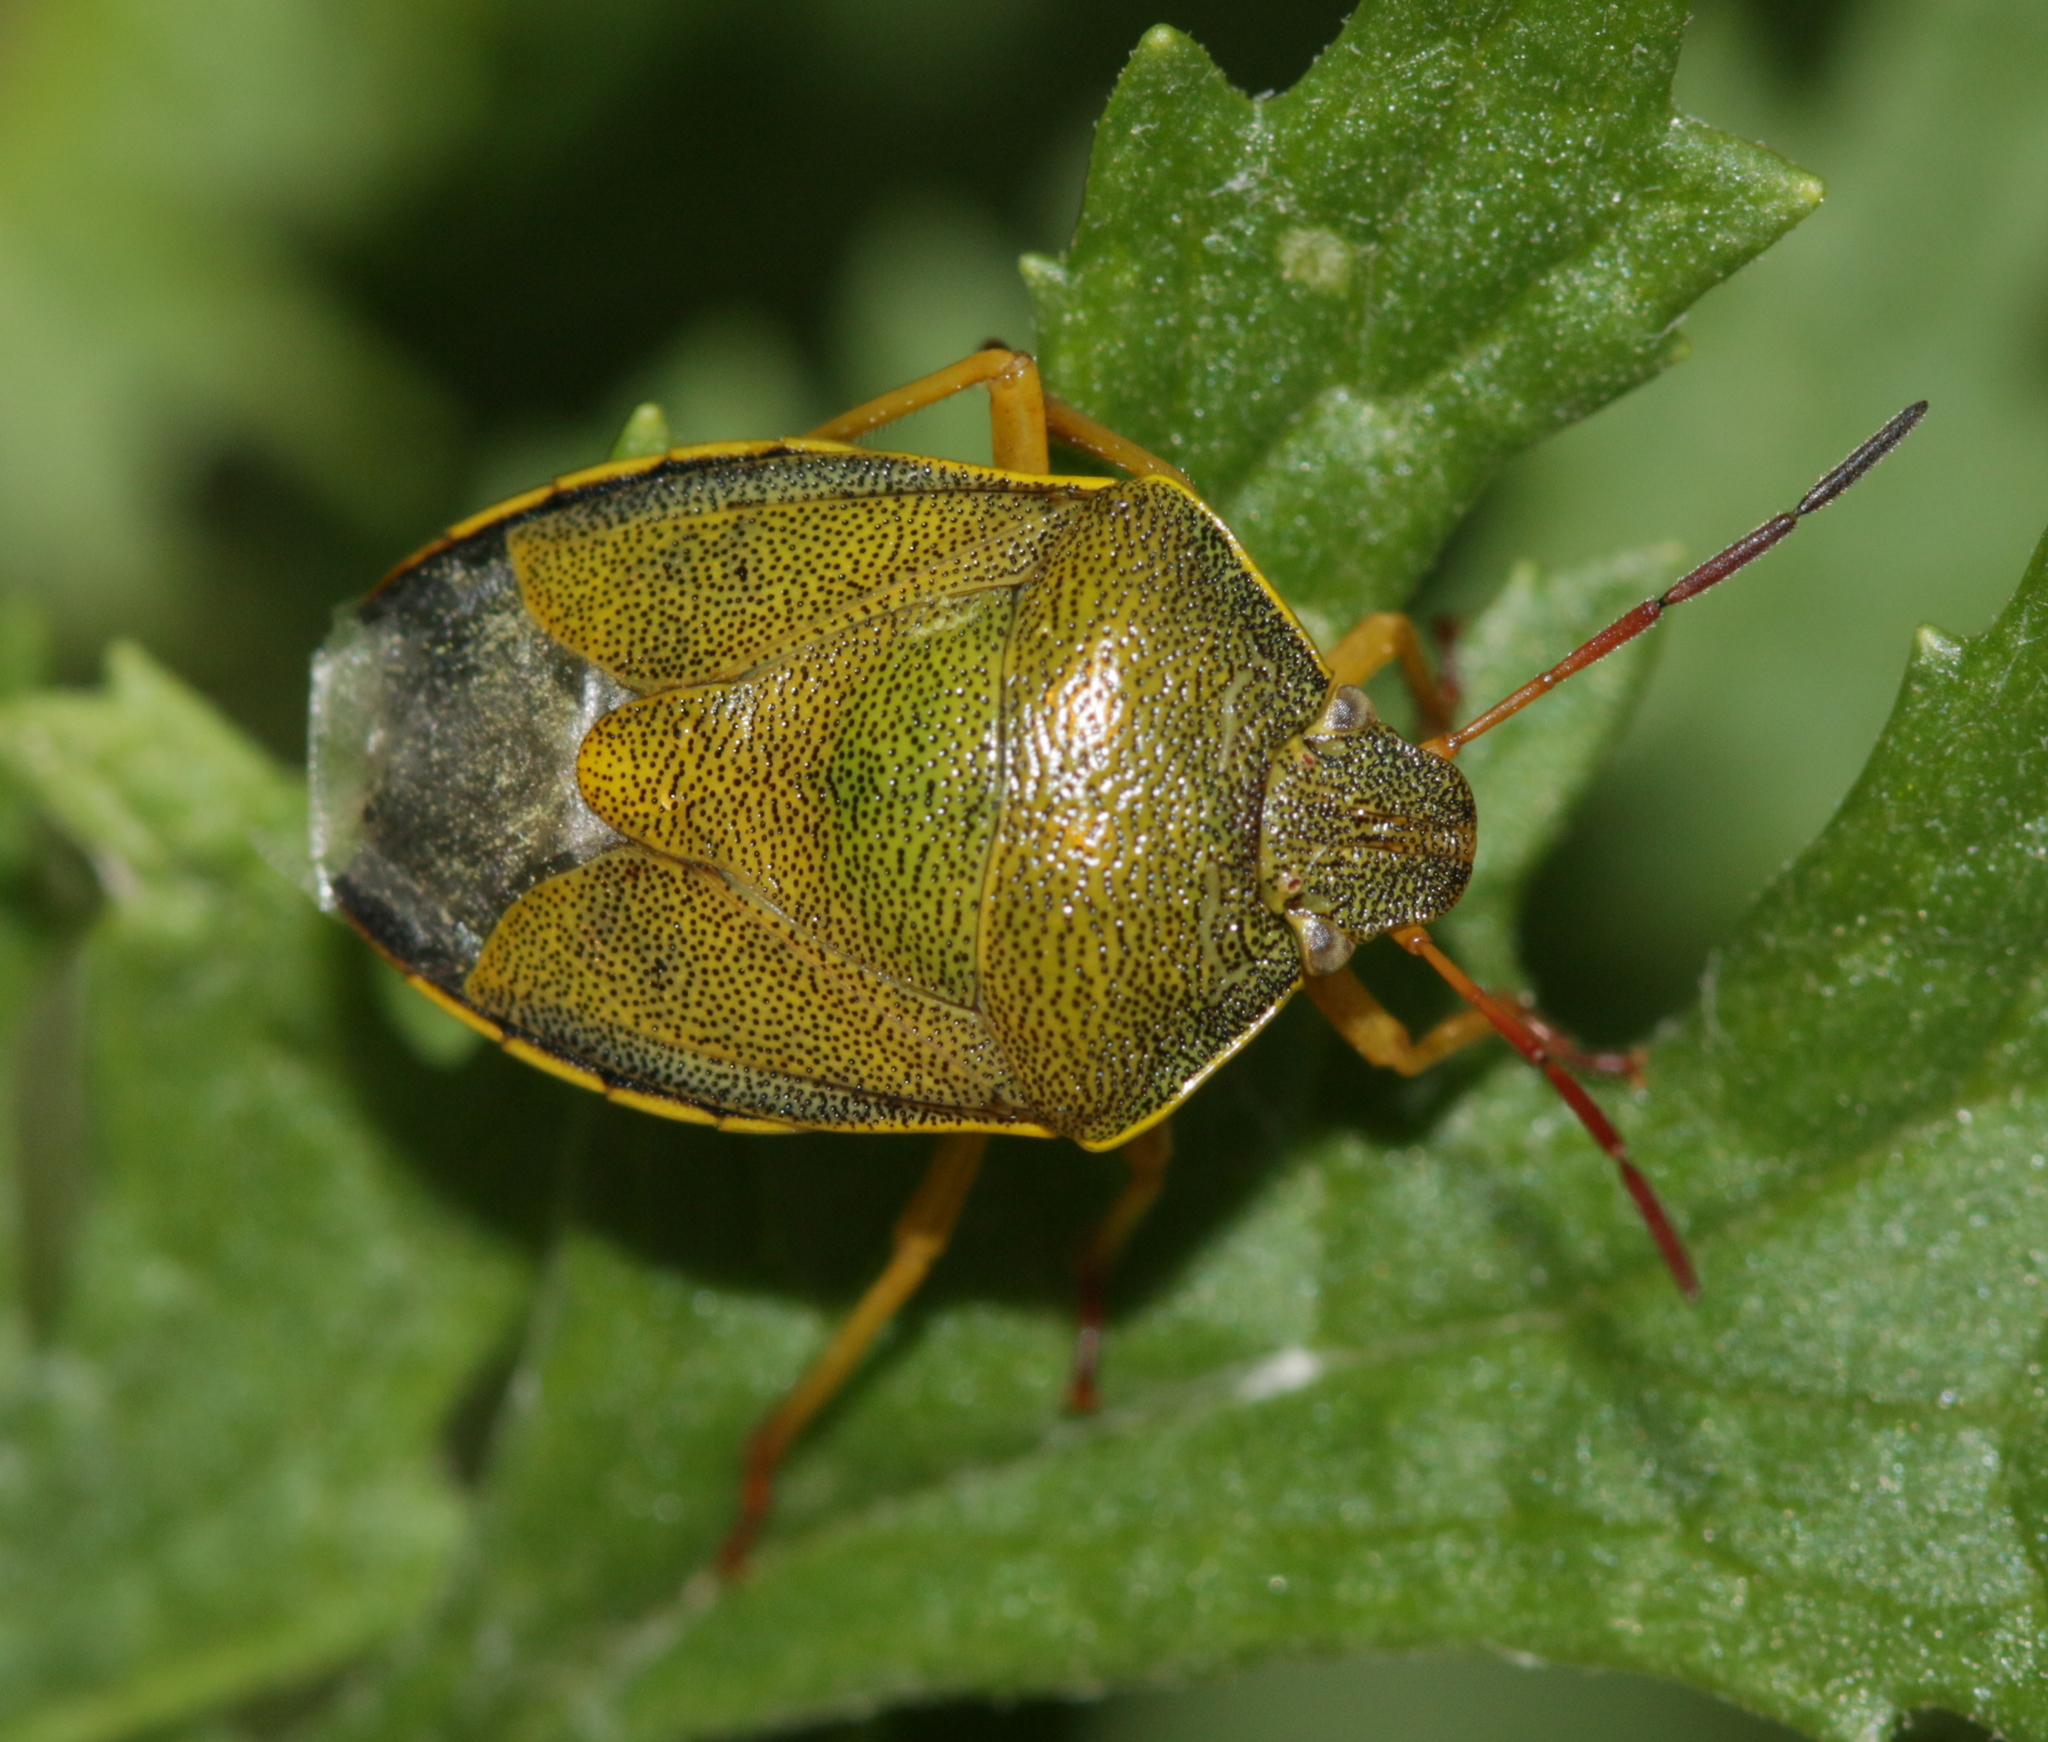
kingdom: Animalia
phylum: Arthropoda
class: Insecta
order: Hemiptera
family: Pentatomidae
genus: Piezodorus
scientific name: Piezodorus lituratus
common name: Stink bug
